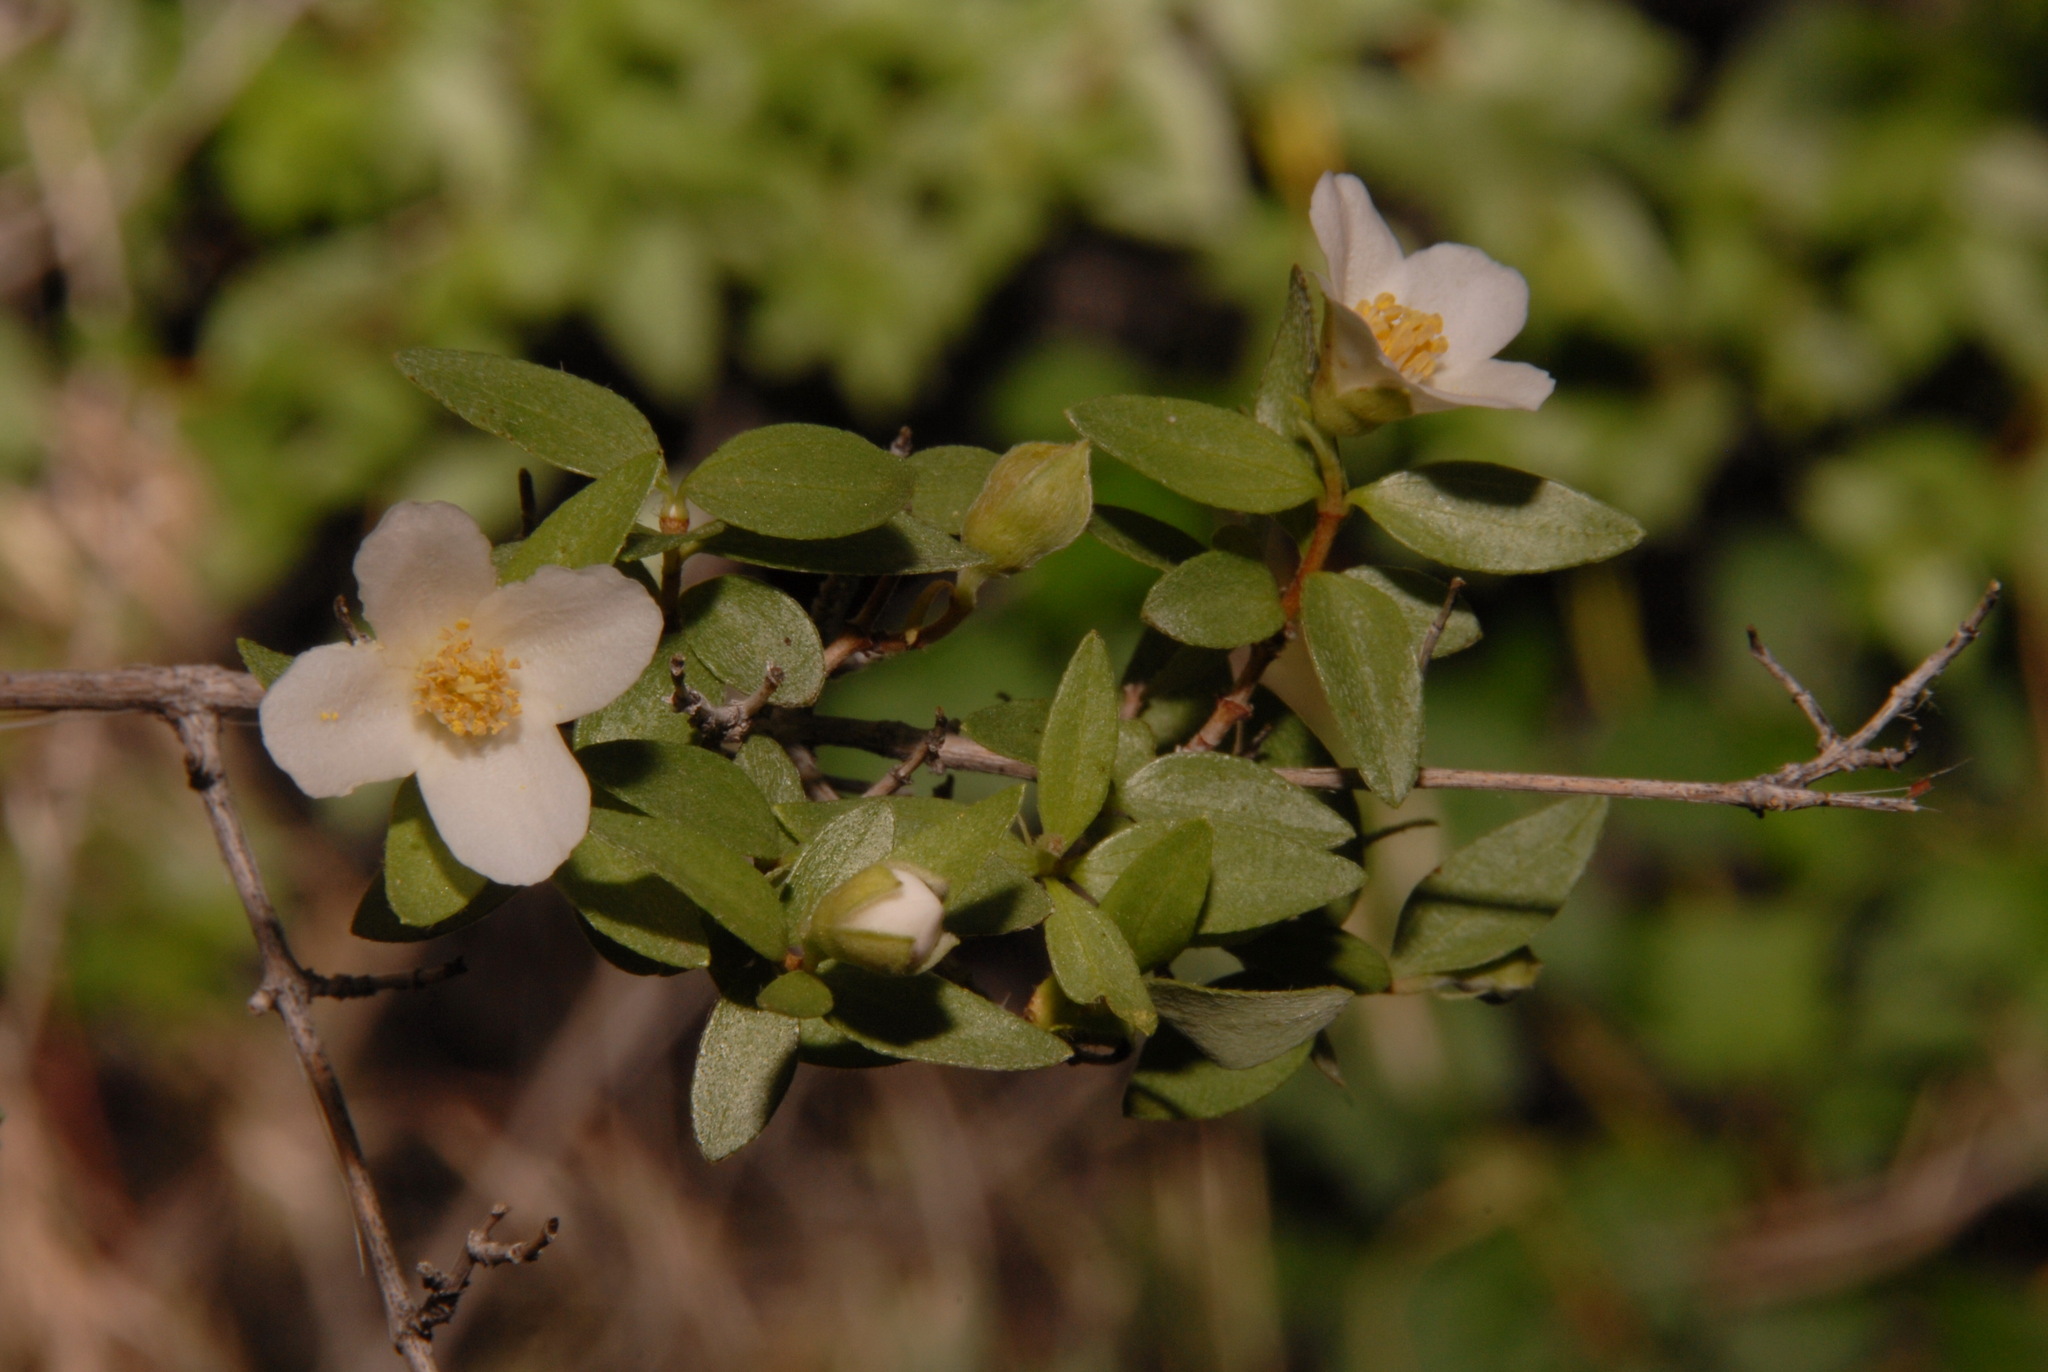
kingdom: Plantae
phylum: Tracheophyta
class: Magnoliopsida
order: Cornales
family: Hydrangeaceae
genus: Philadelphus
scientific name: Philadelphus microphyllus
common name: Desert mock orange
